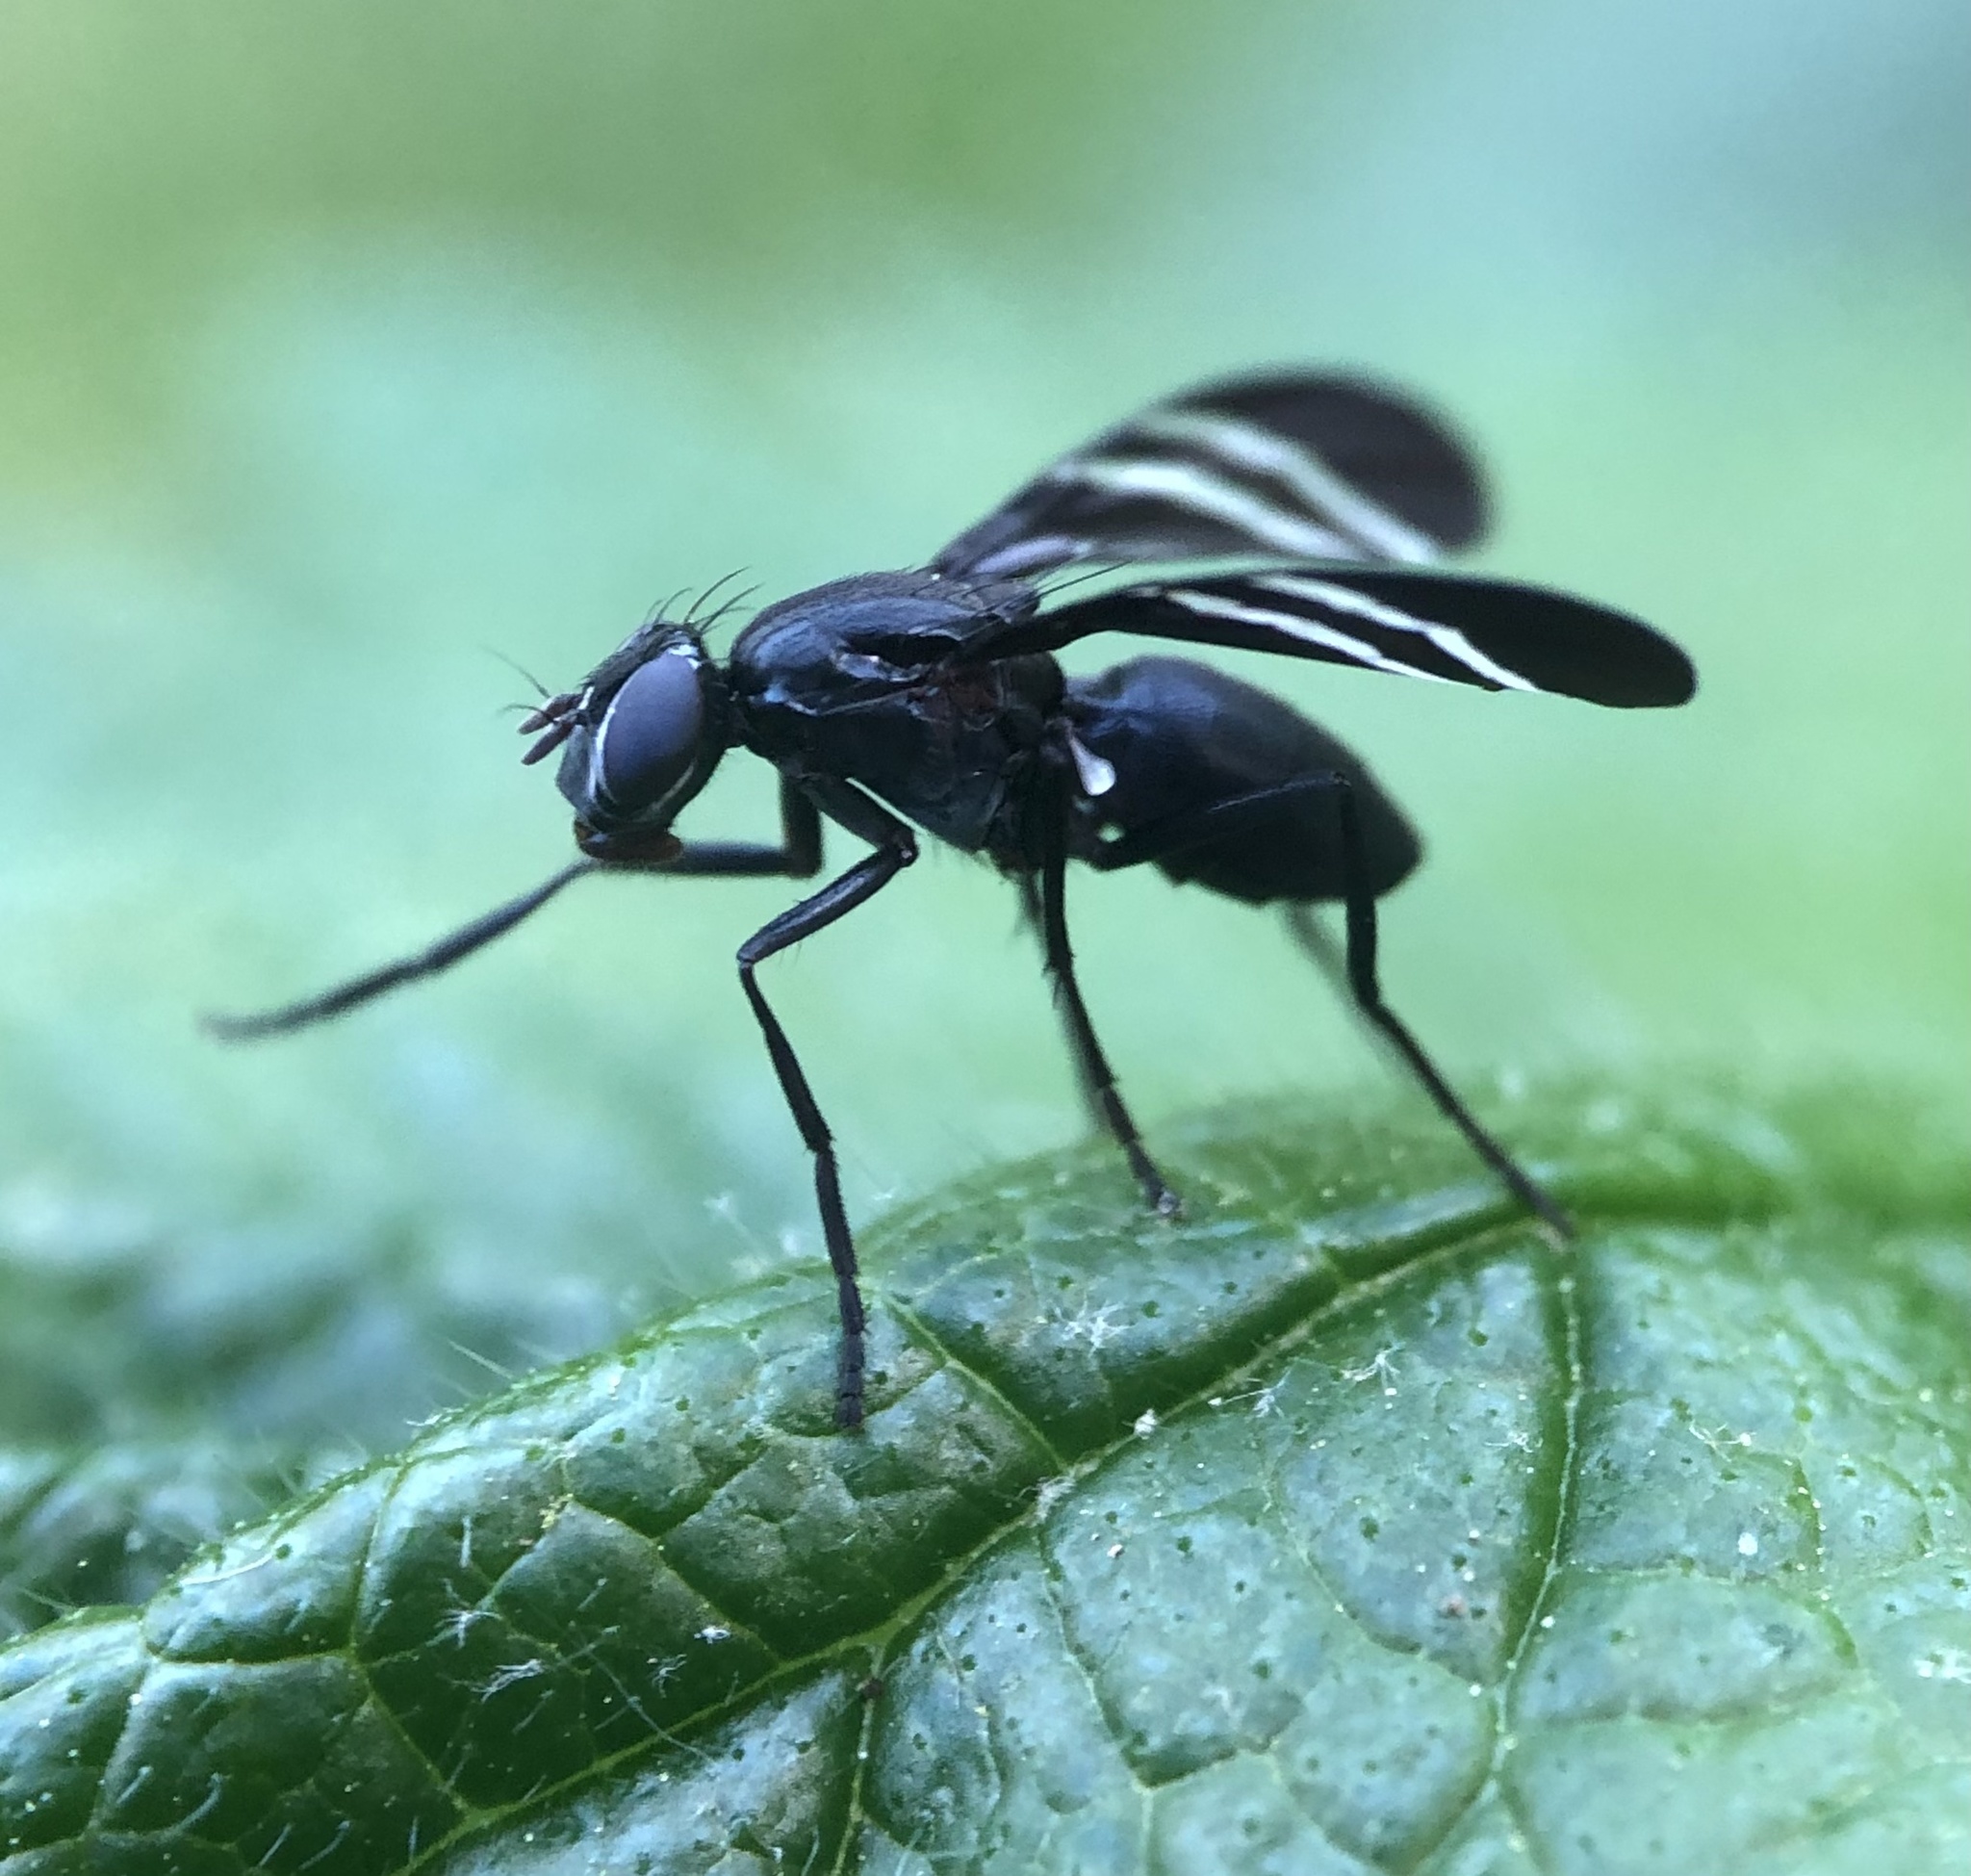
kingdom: Animalia
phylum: Arthropoda
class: Insecta
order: Diptera
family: Ulidiidae
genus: Tritoxa
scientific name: Tritoxa flexa
